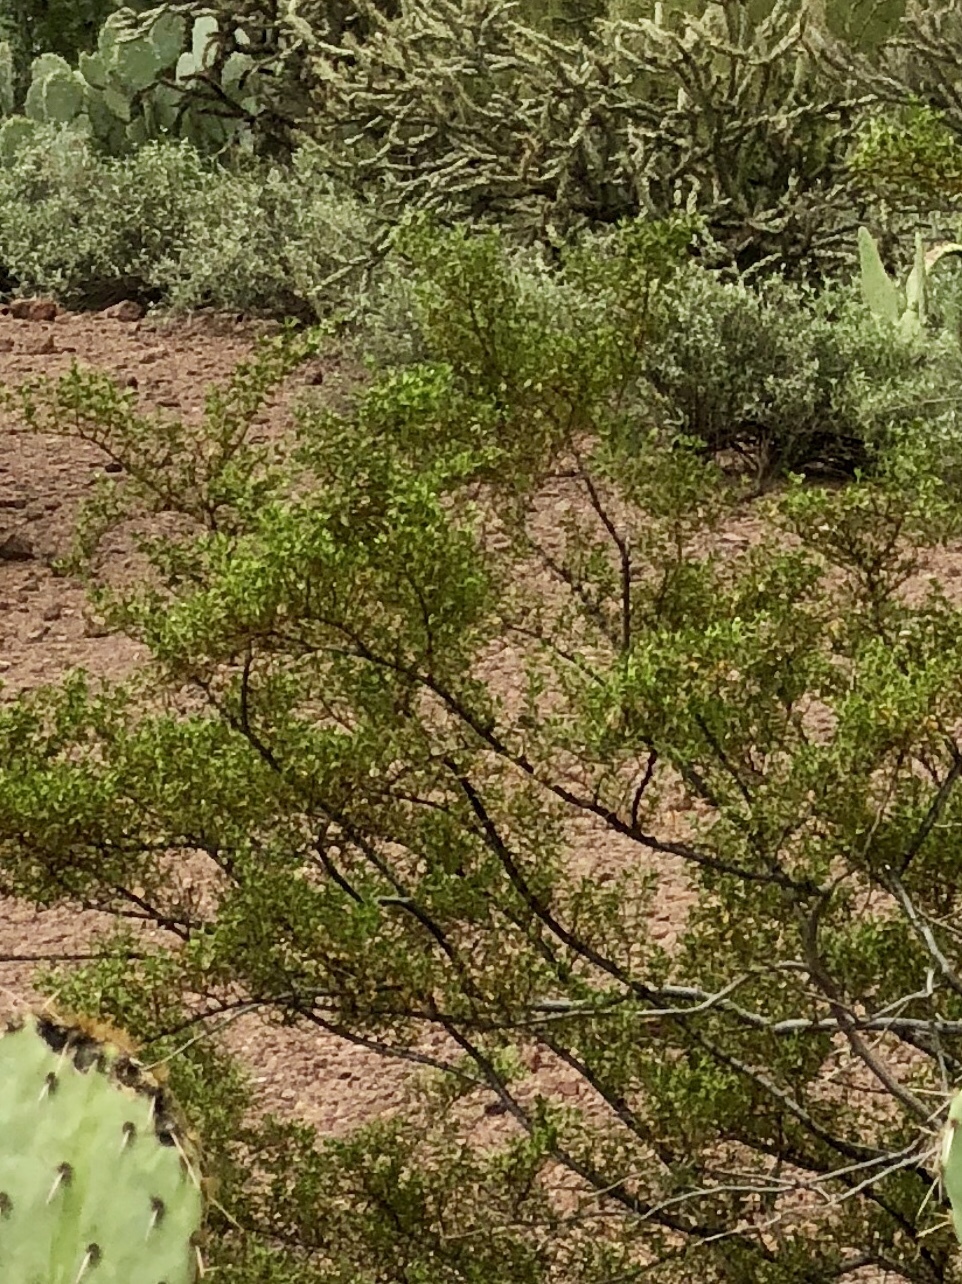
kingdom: Plantae
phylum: Tracheophyta
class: Magnoliopsida
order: Zygophyllales
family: Zygophyllaceae
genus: Larrea
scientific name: Larrea tridentata
